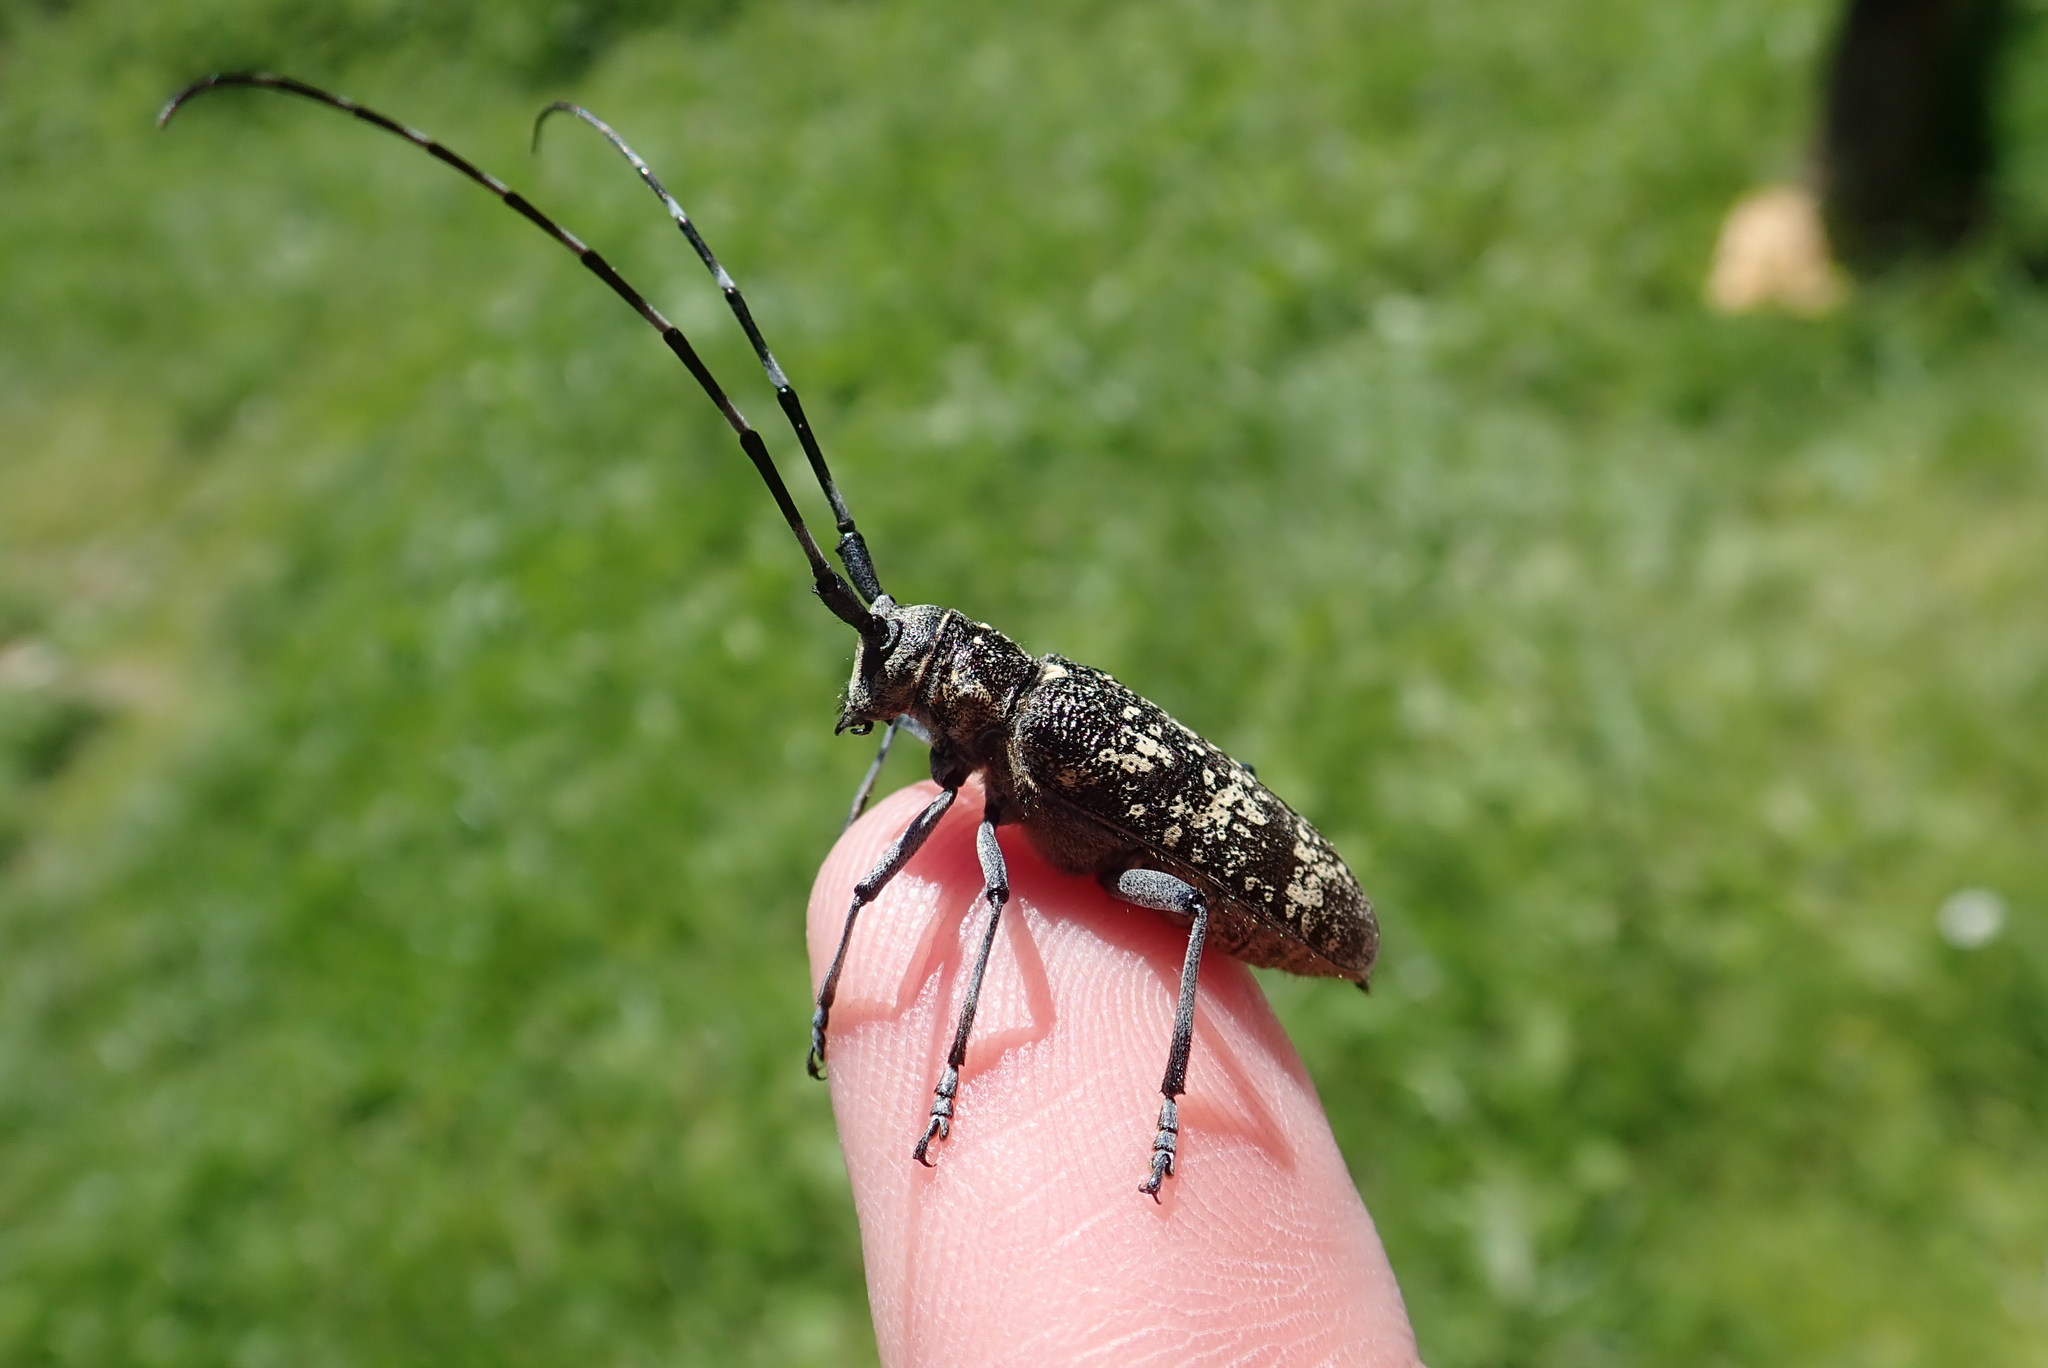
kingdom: Animalia
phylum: Arthropoda
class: Insecta
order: Coleoptera
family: Cerambycidae
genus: Monochamus
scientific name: Monochamus sutor
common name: Pine sawyer
